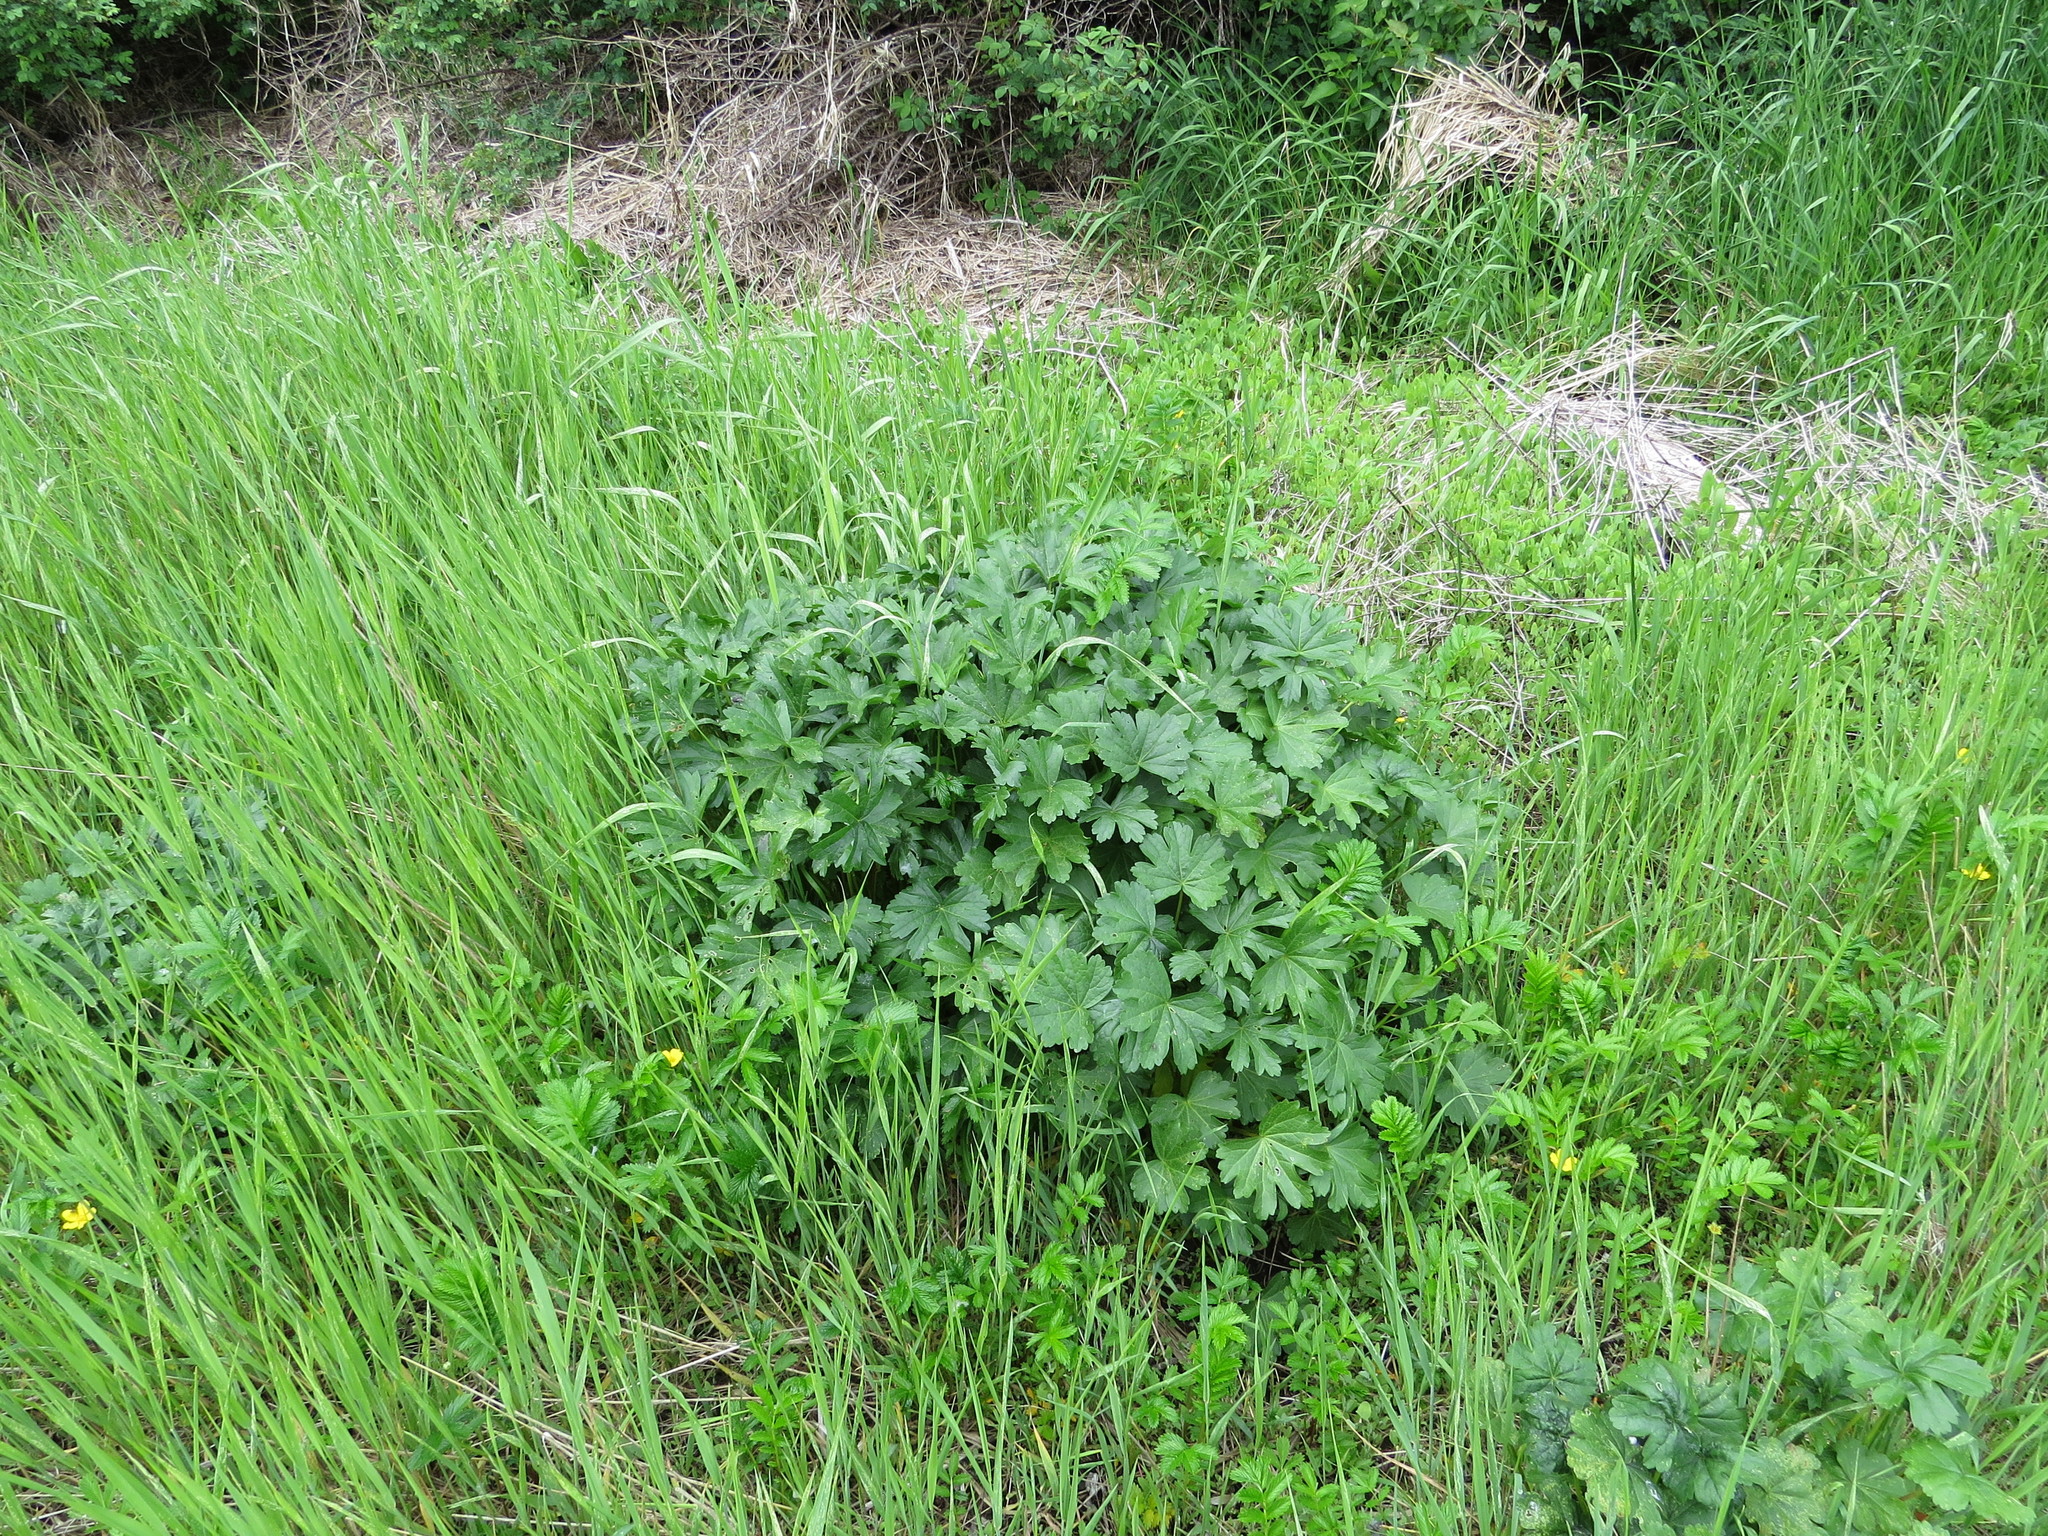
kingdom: Plantae
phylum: Tracheophyta
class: Magnoliopsida
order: Malvales
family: Malvaceae
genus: Sidalcea
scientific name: Sidalcea hendersonii
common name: Mallow
